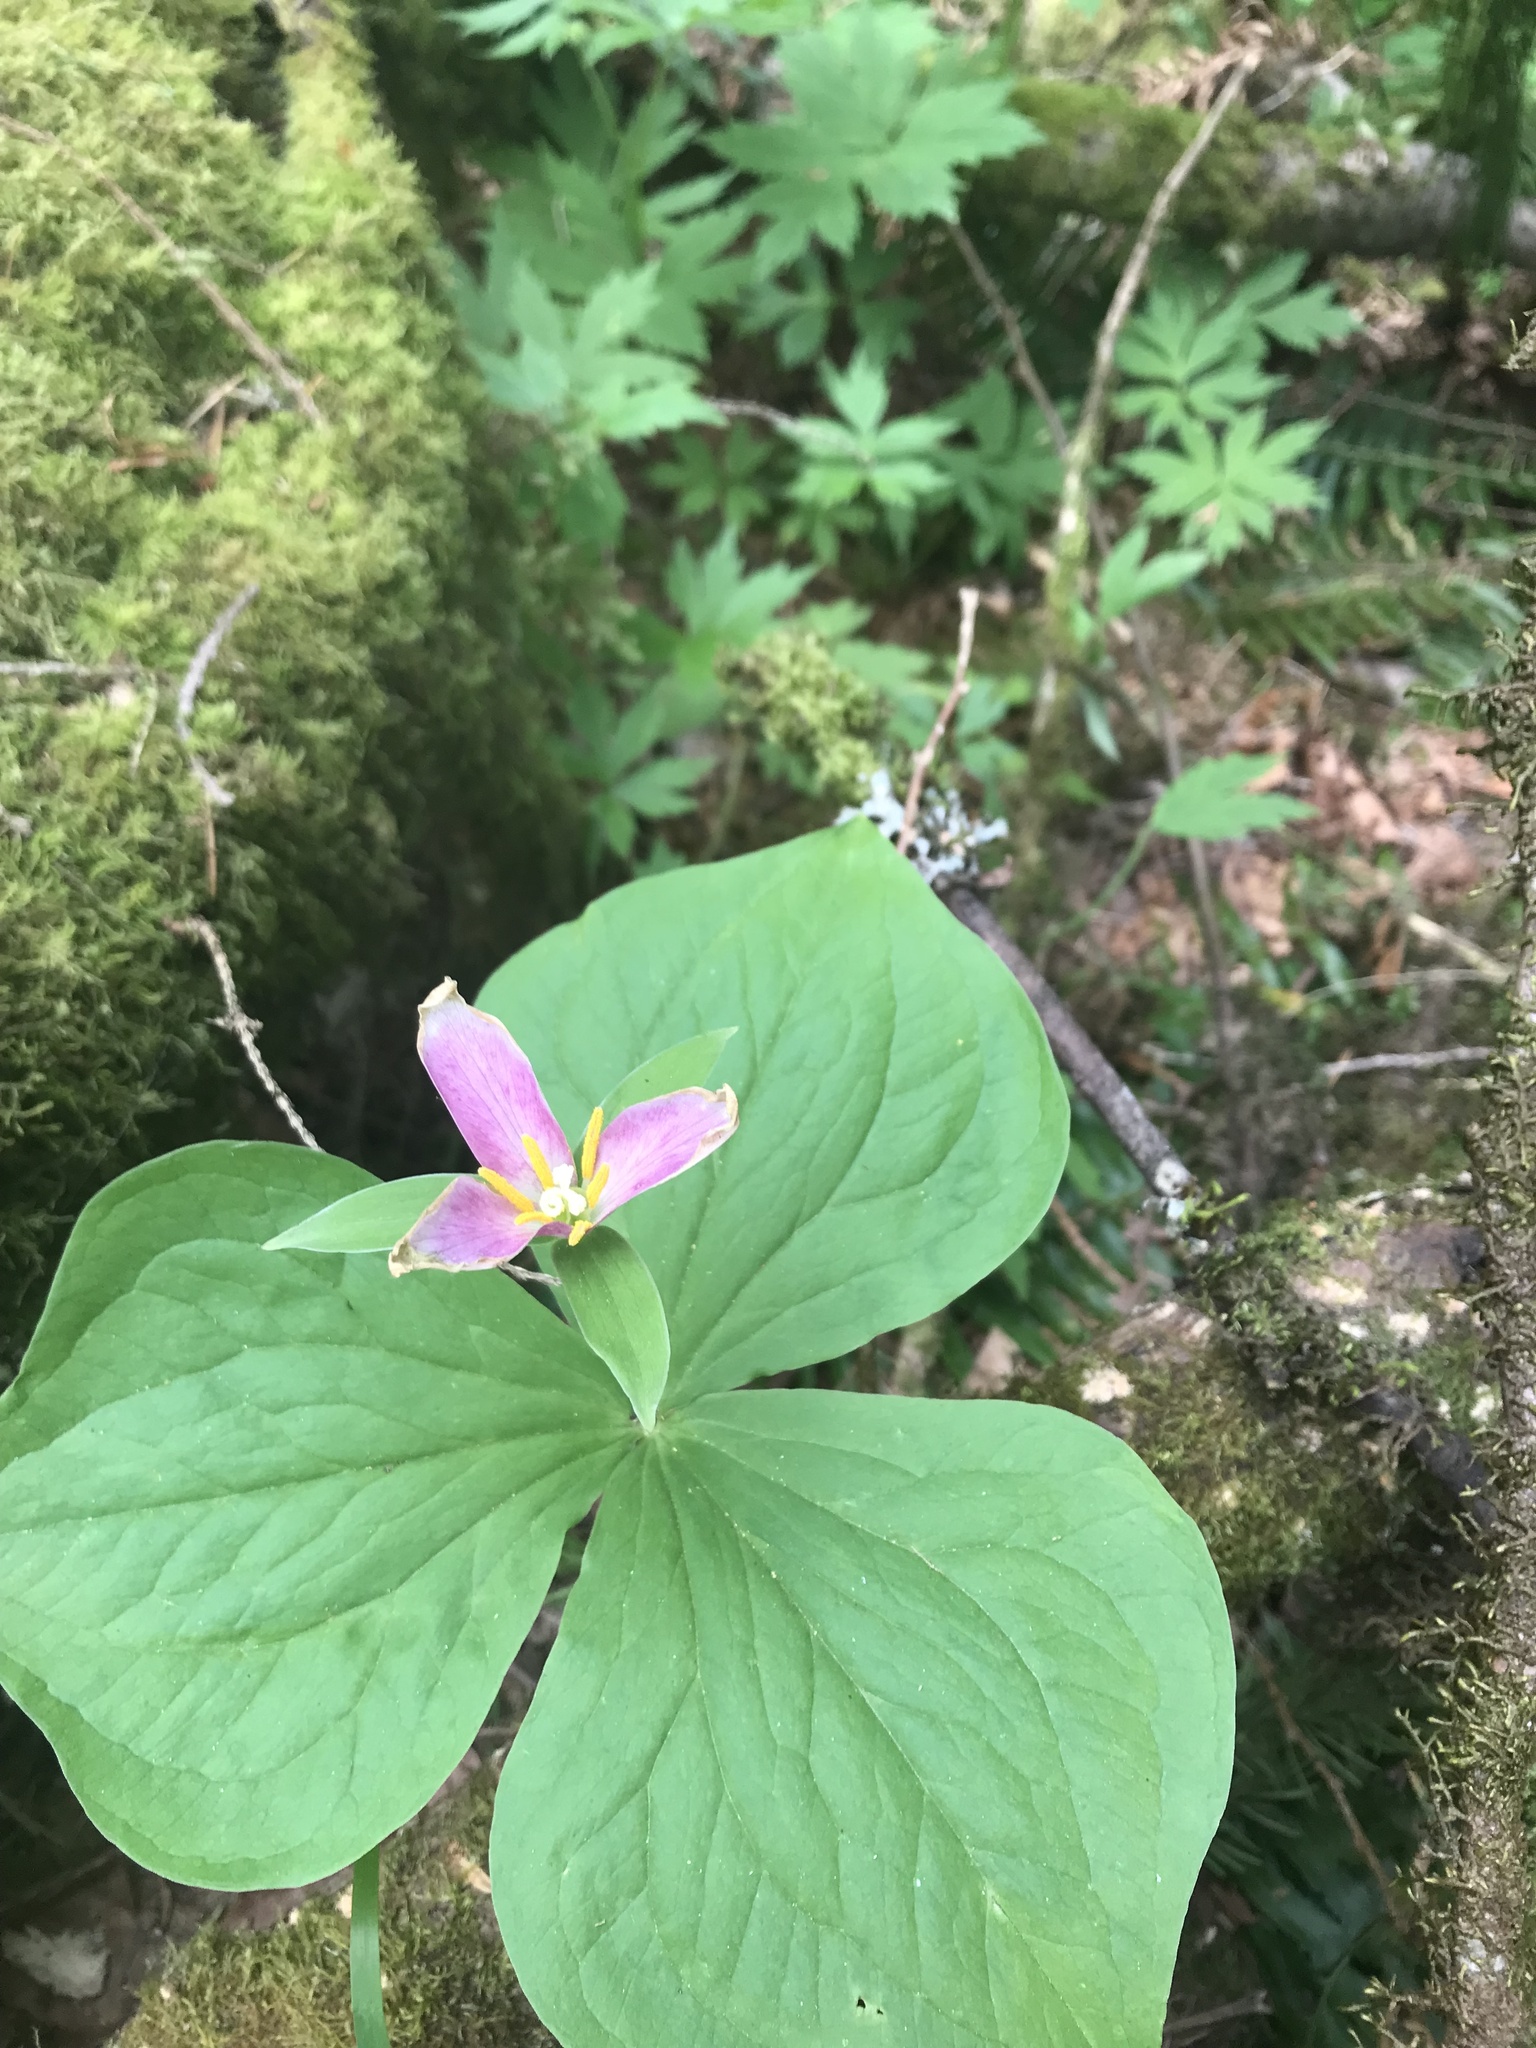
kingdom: Plantae
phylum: Tracheophyta
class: Liliopsida
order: Liliales
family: Melanthiaceae
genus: Trillium
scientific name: Trillium ovatum
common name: Pacific trillium
